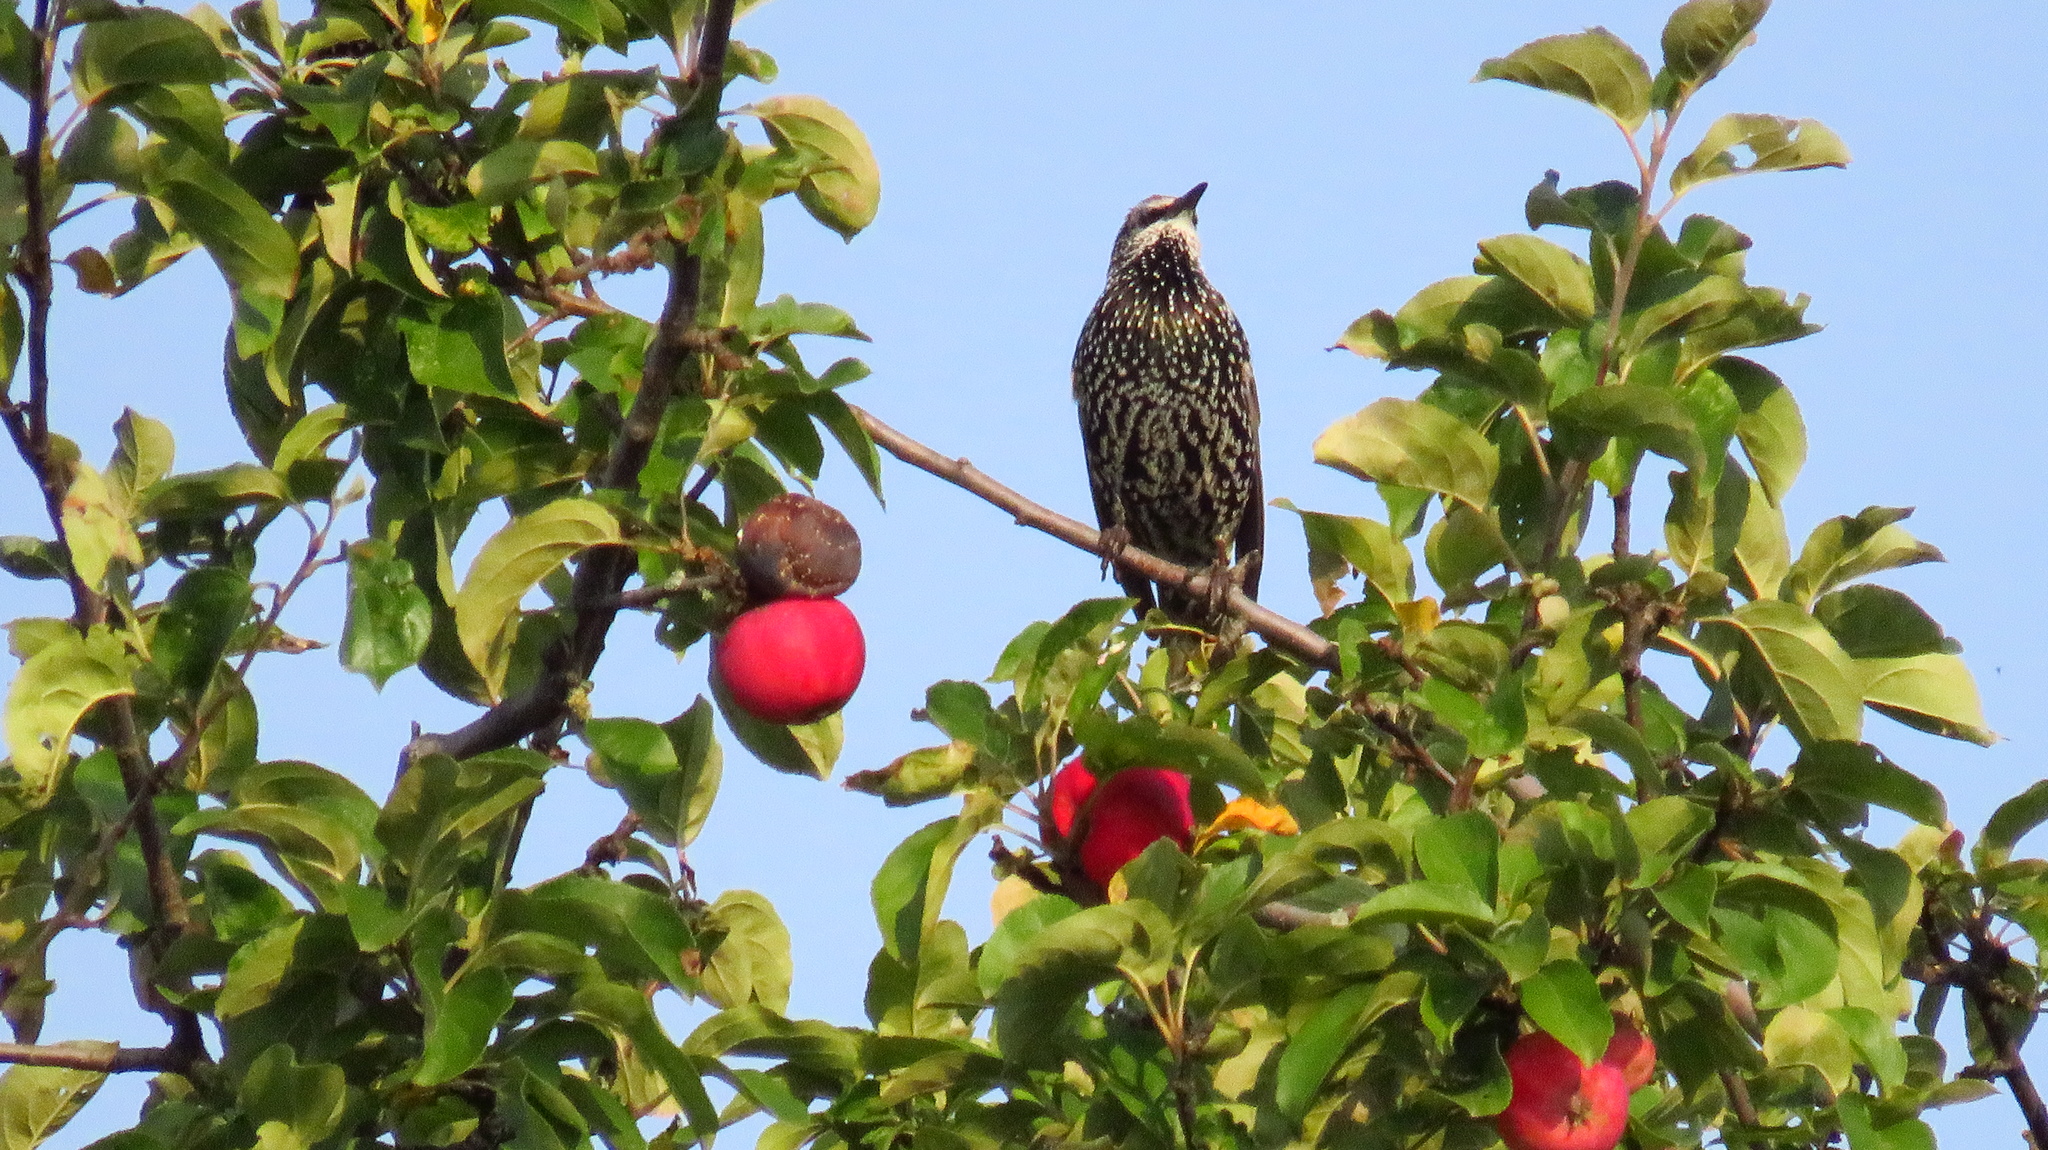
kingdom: Animalia
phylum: Chordata
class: Aves
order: Passeriformes
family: Sturnidae
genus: Sturnus
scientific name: Sturnus vulgaris
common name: Common starling
